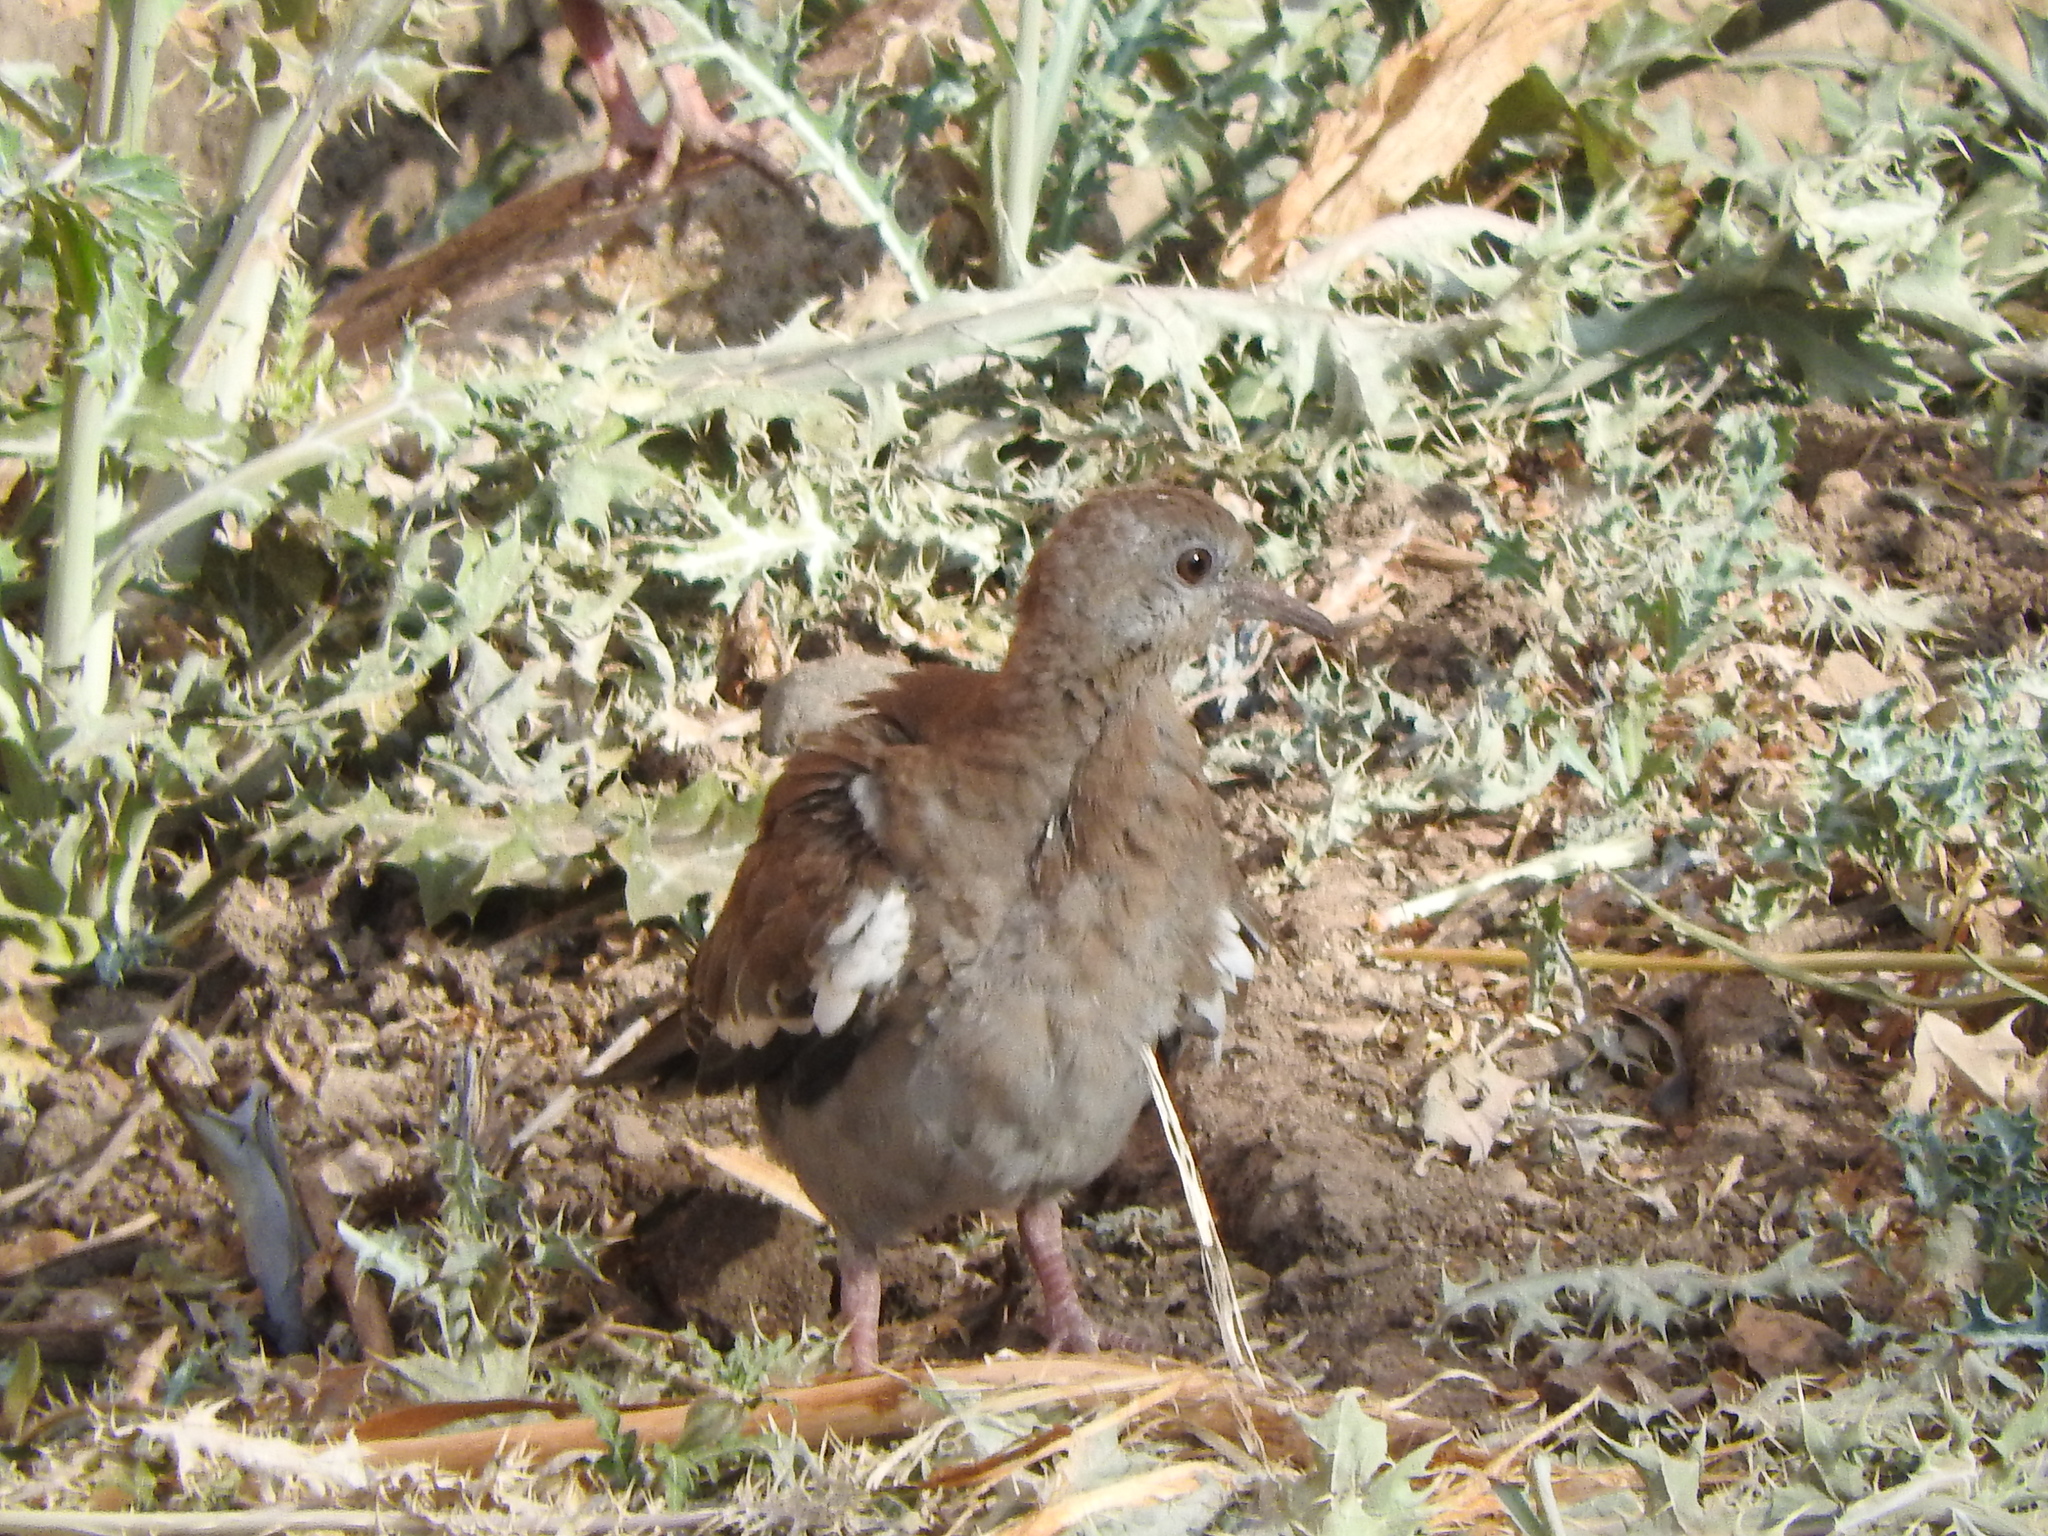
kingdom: Animalia
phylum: Chordata
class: Aves
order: Columbiformes
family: Columbidae
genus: Zenaida
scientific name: Zenaida asiatica
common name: White-winged dove
